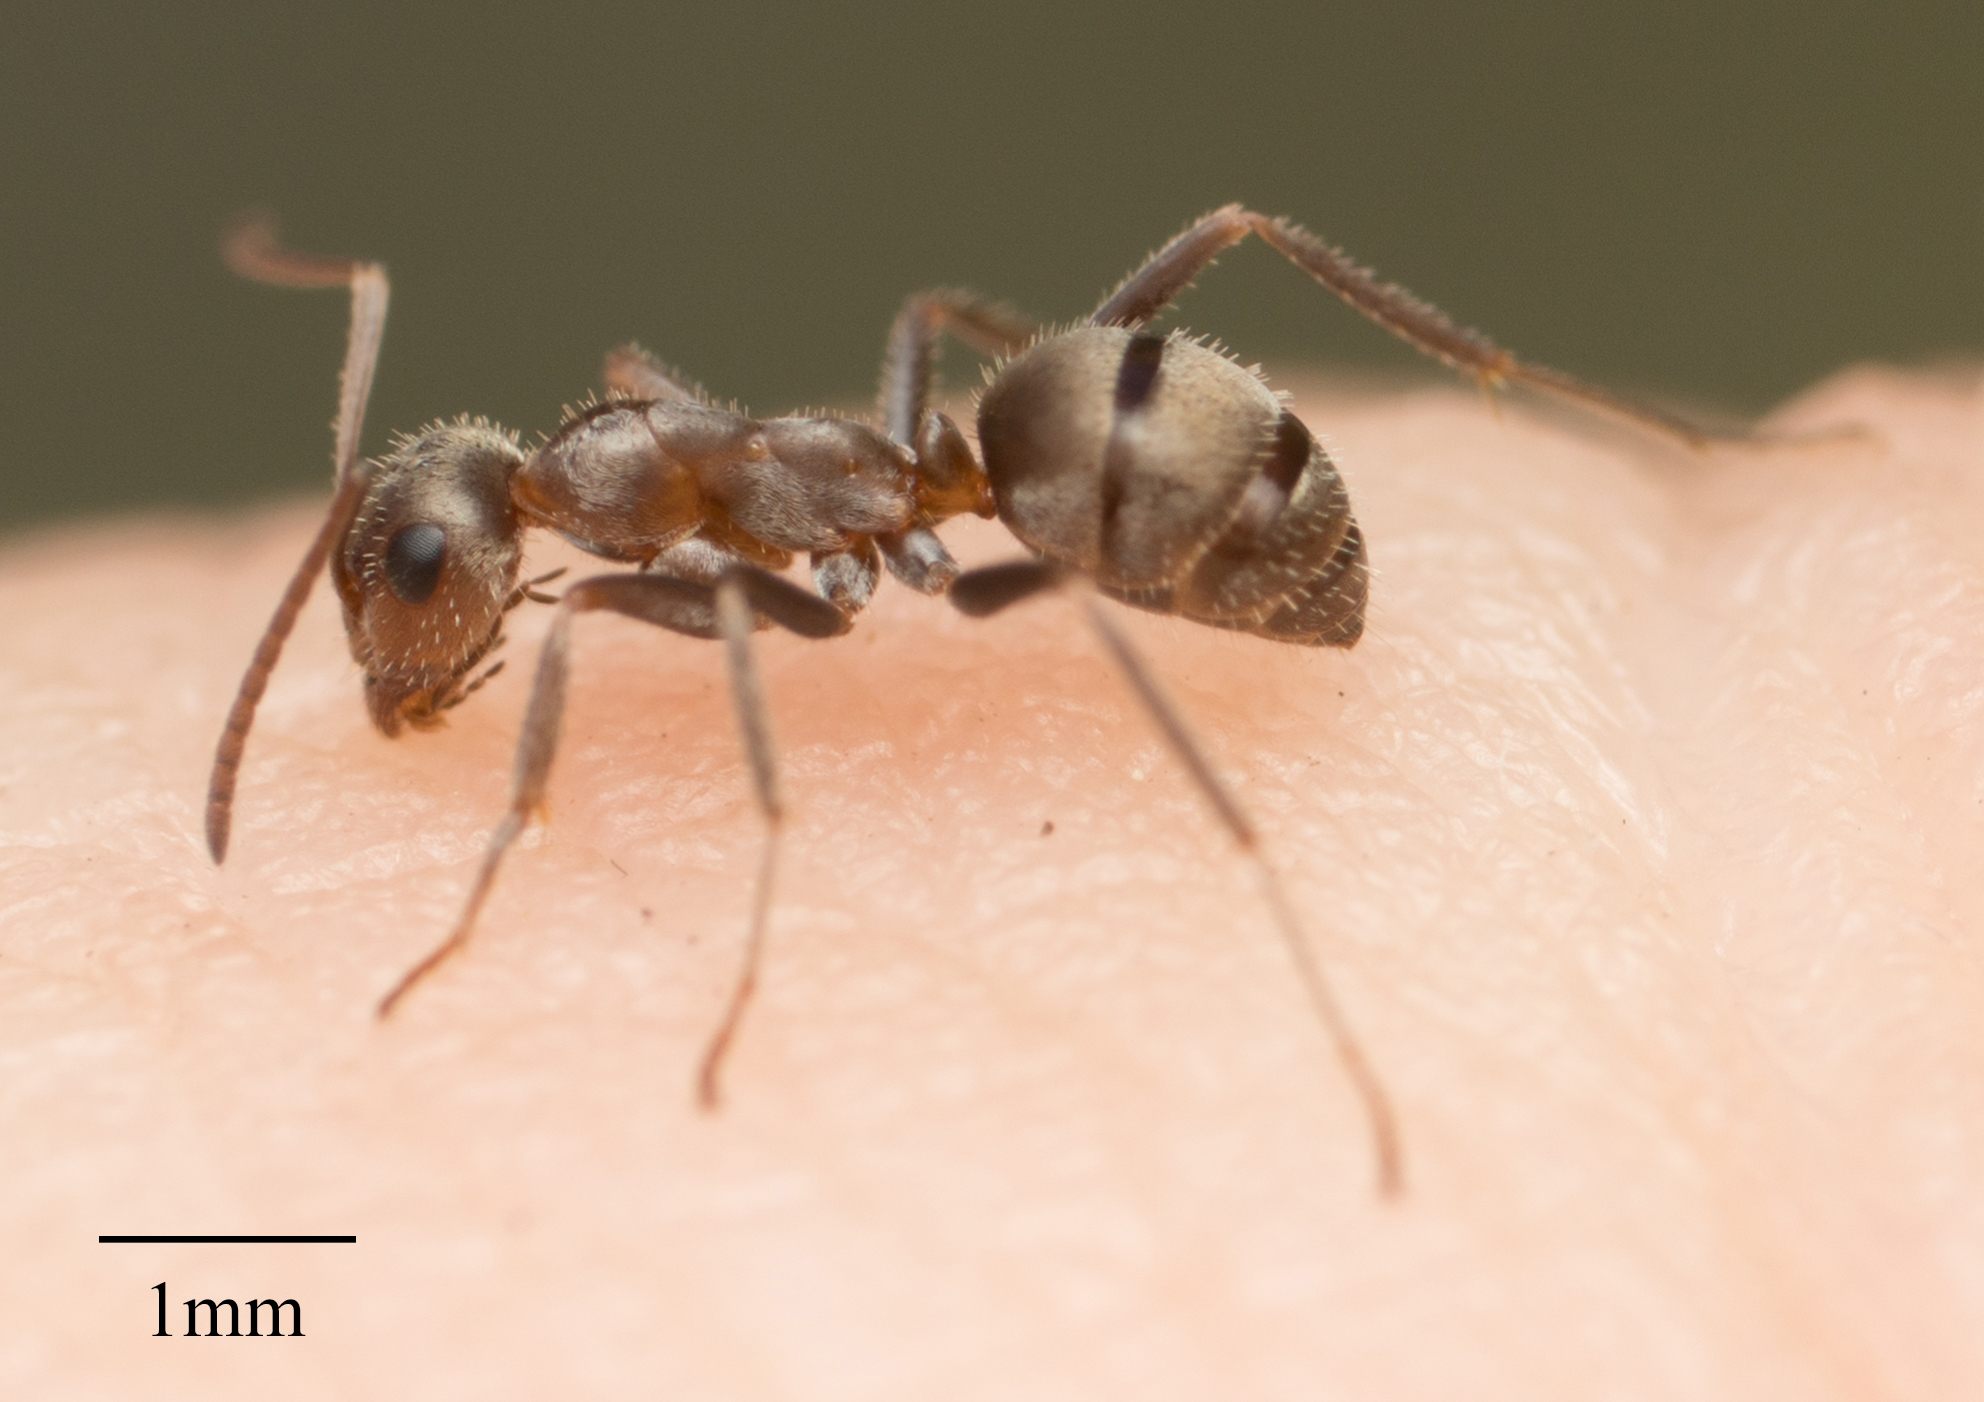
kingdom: Animalia
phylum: Arthropoda
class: Insecta
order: Hymenoptera
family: Formicidae
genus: Formica
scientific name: Formica francoeuri
